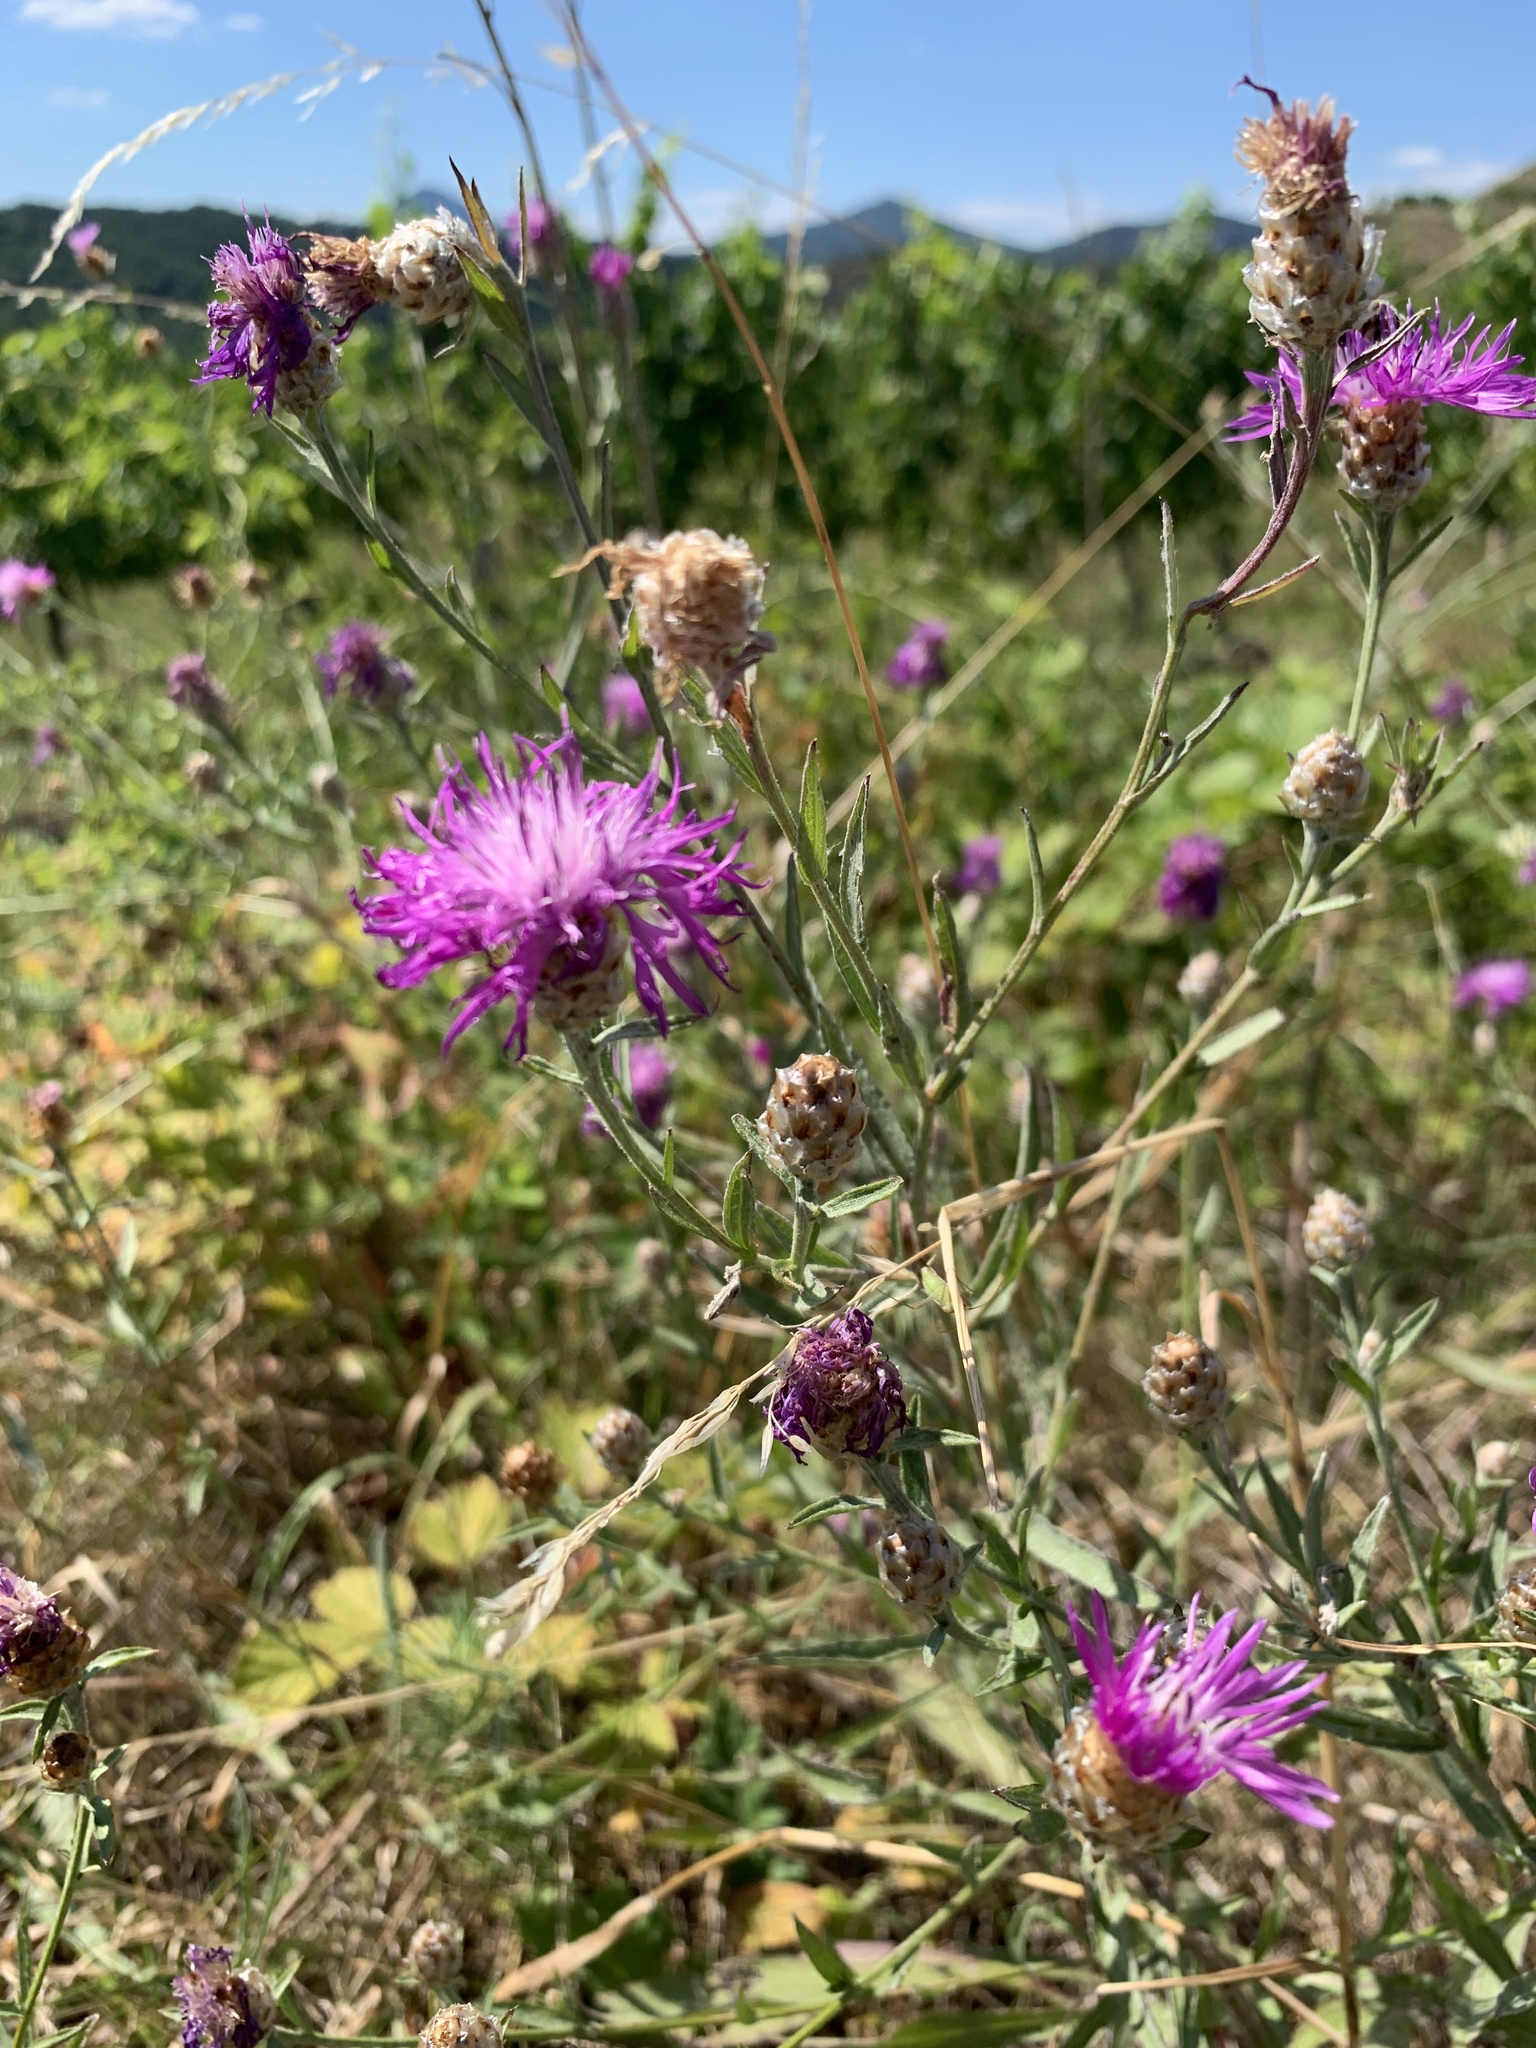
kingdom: Plantae
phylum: Tracheophyta
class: Magnoliopsida
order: Asterales
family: Asteraceae
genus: Centaurea
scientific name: Centaurea jacea
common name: Brown knapweed
